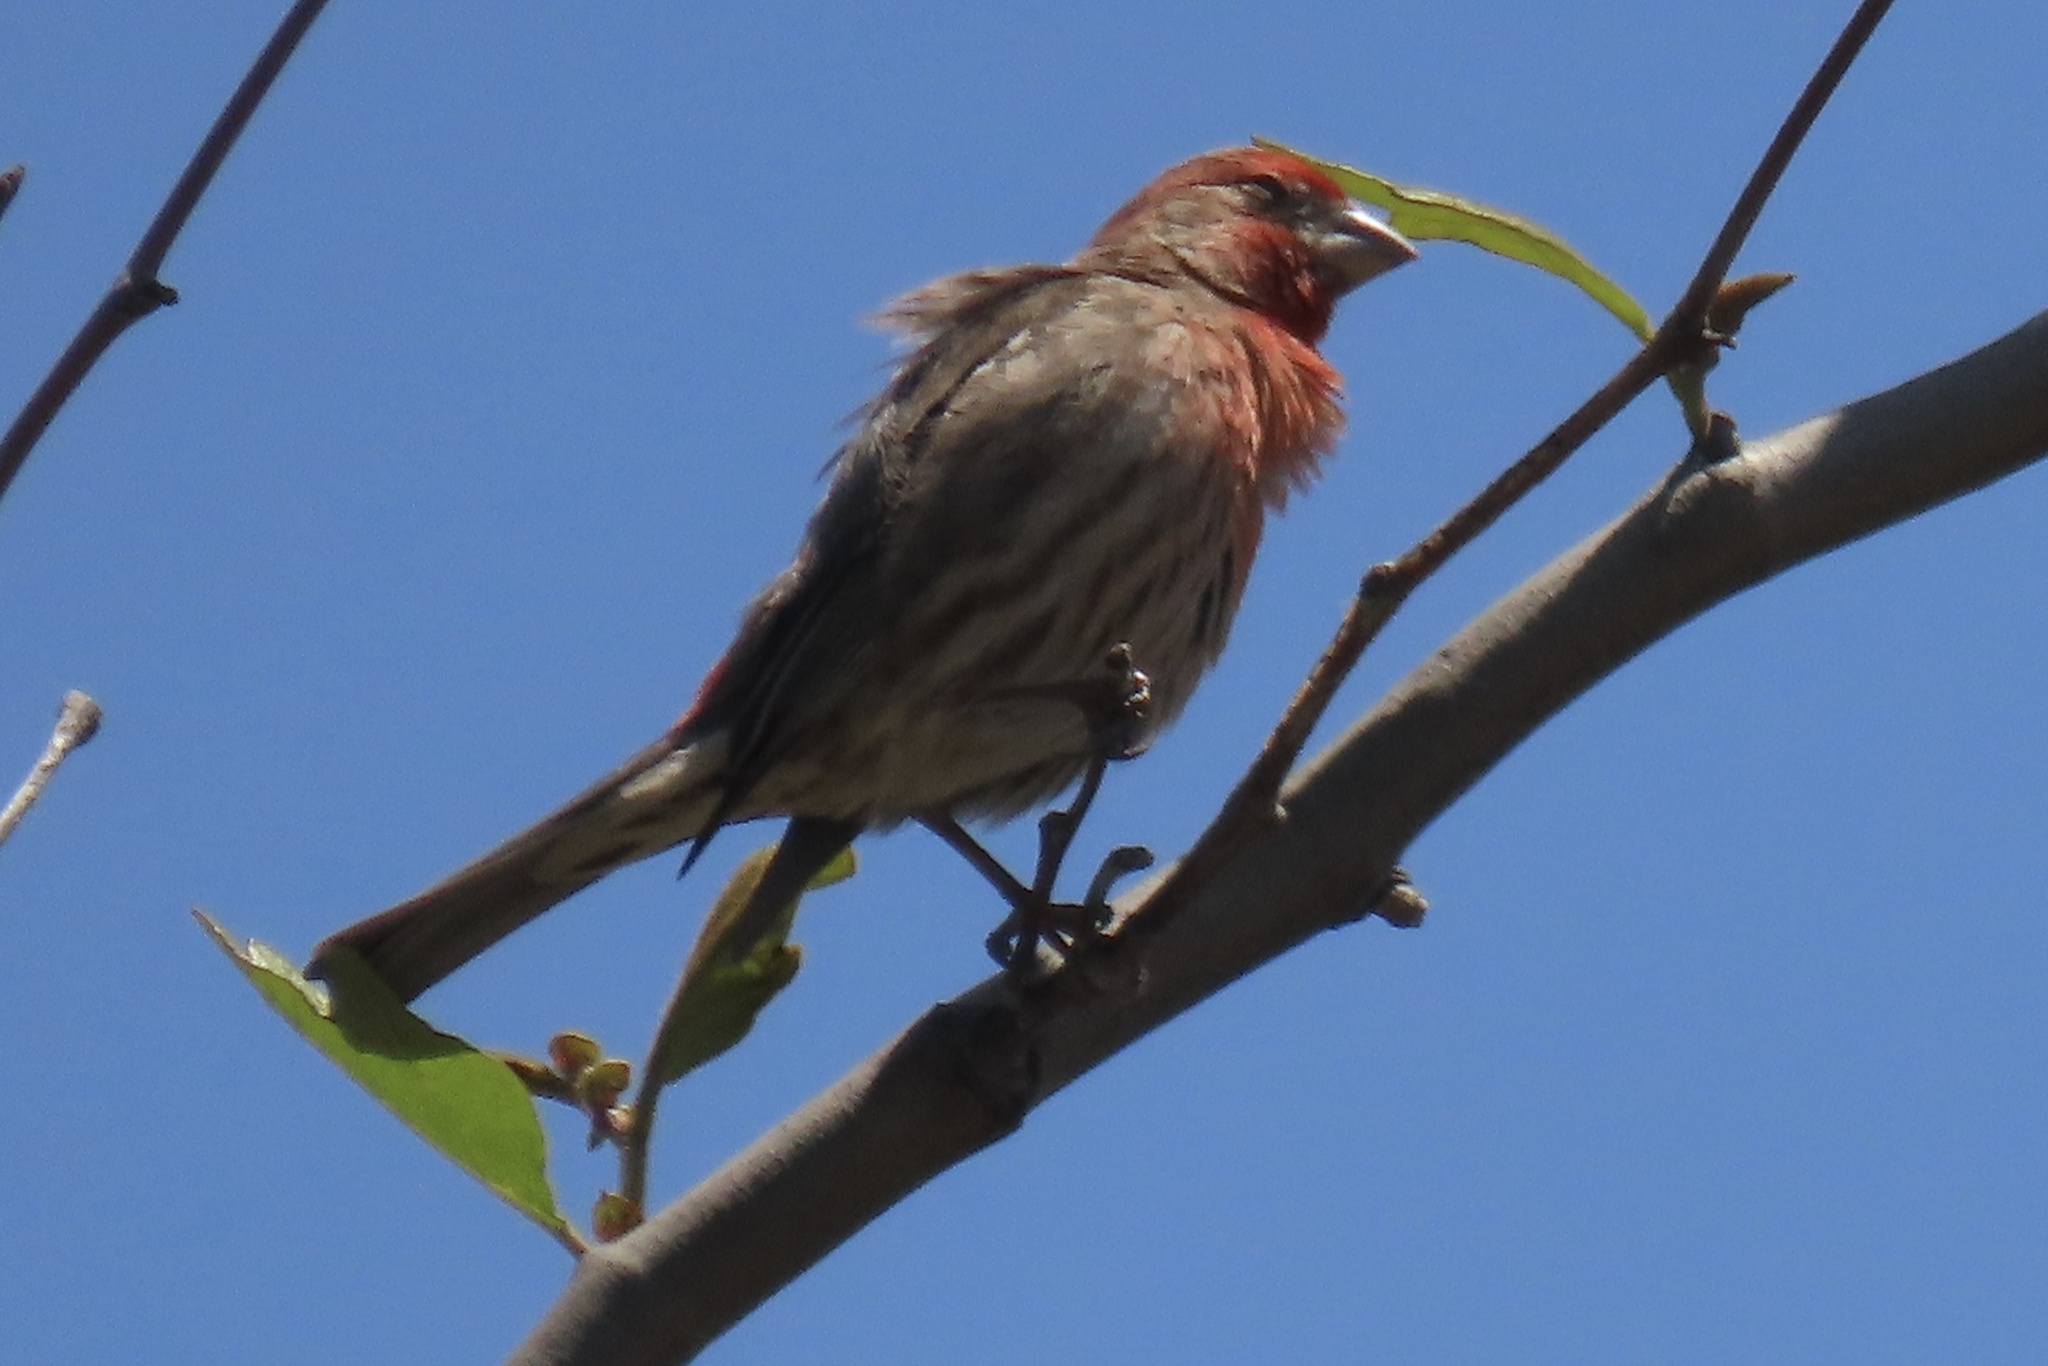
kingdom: Animalia
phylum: Chordata
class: Aves
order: Passeriformes
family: Fringillidae
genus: Haemorhous
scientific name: Haemorhous mexicanus
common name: House finch
